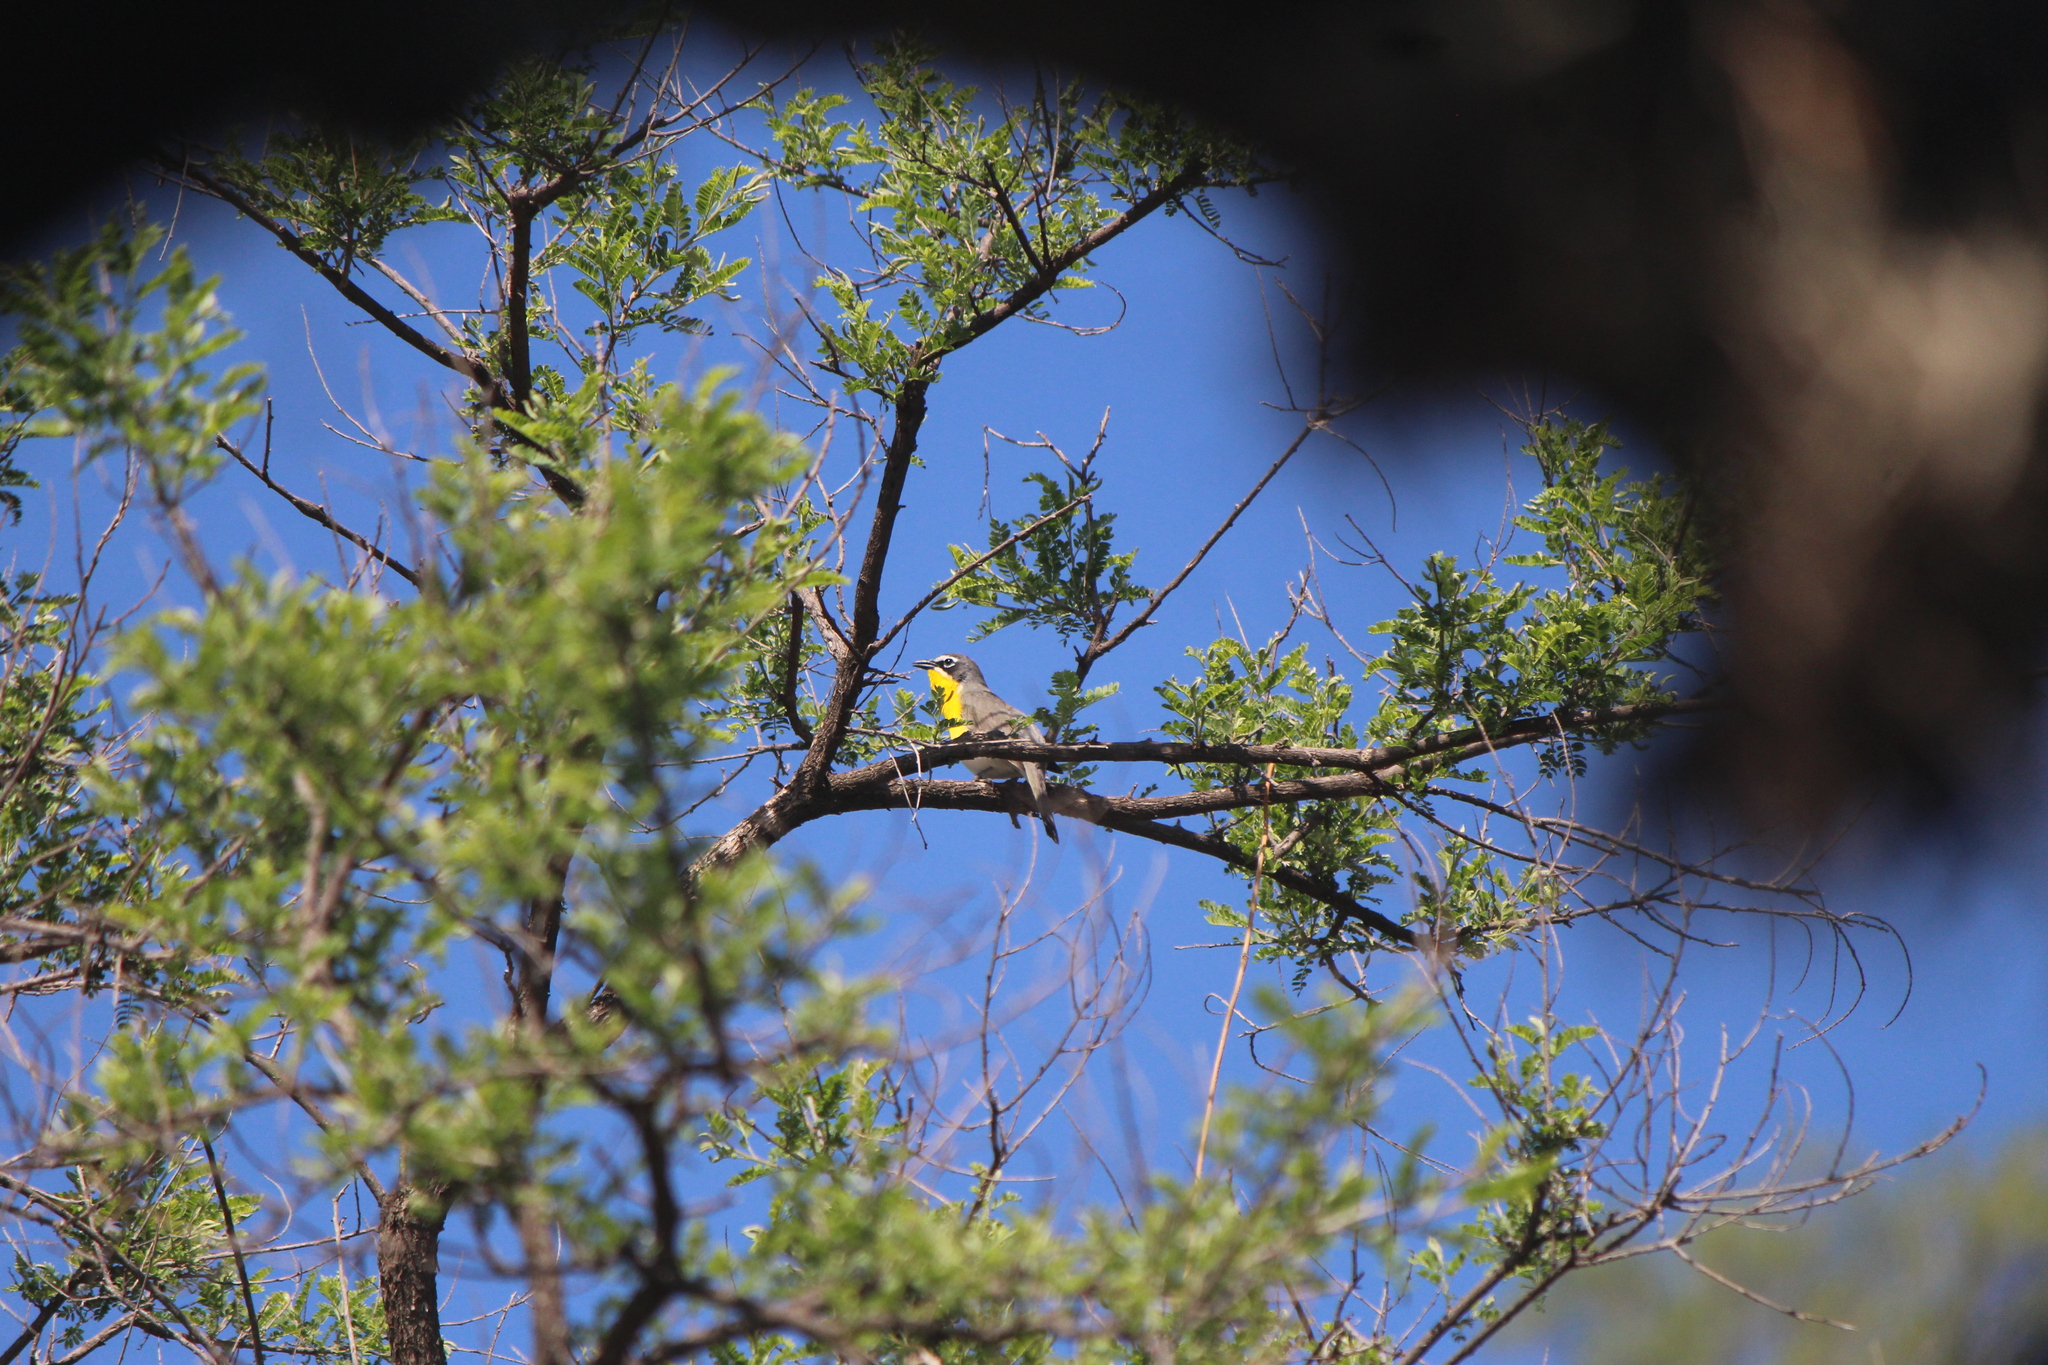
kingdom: Animalia
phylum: Chordata
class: Aves
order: Passeriformes
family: Parulidae
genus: Icteria
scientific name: Icteria virens
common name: Yellow-breasted chat
